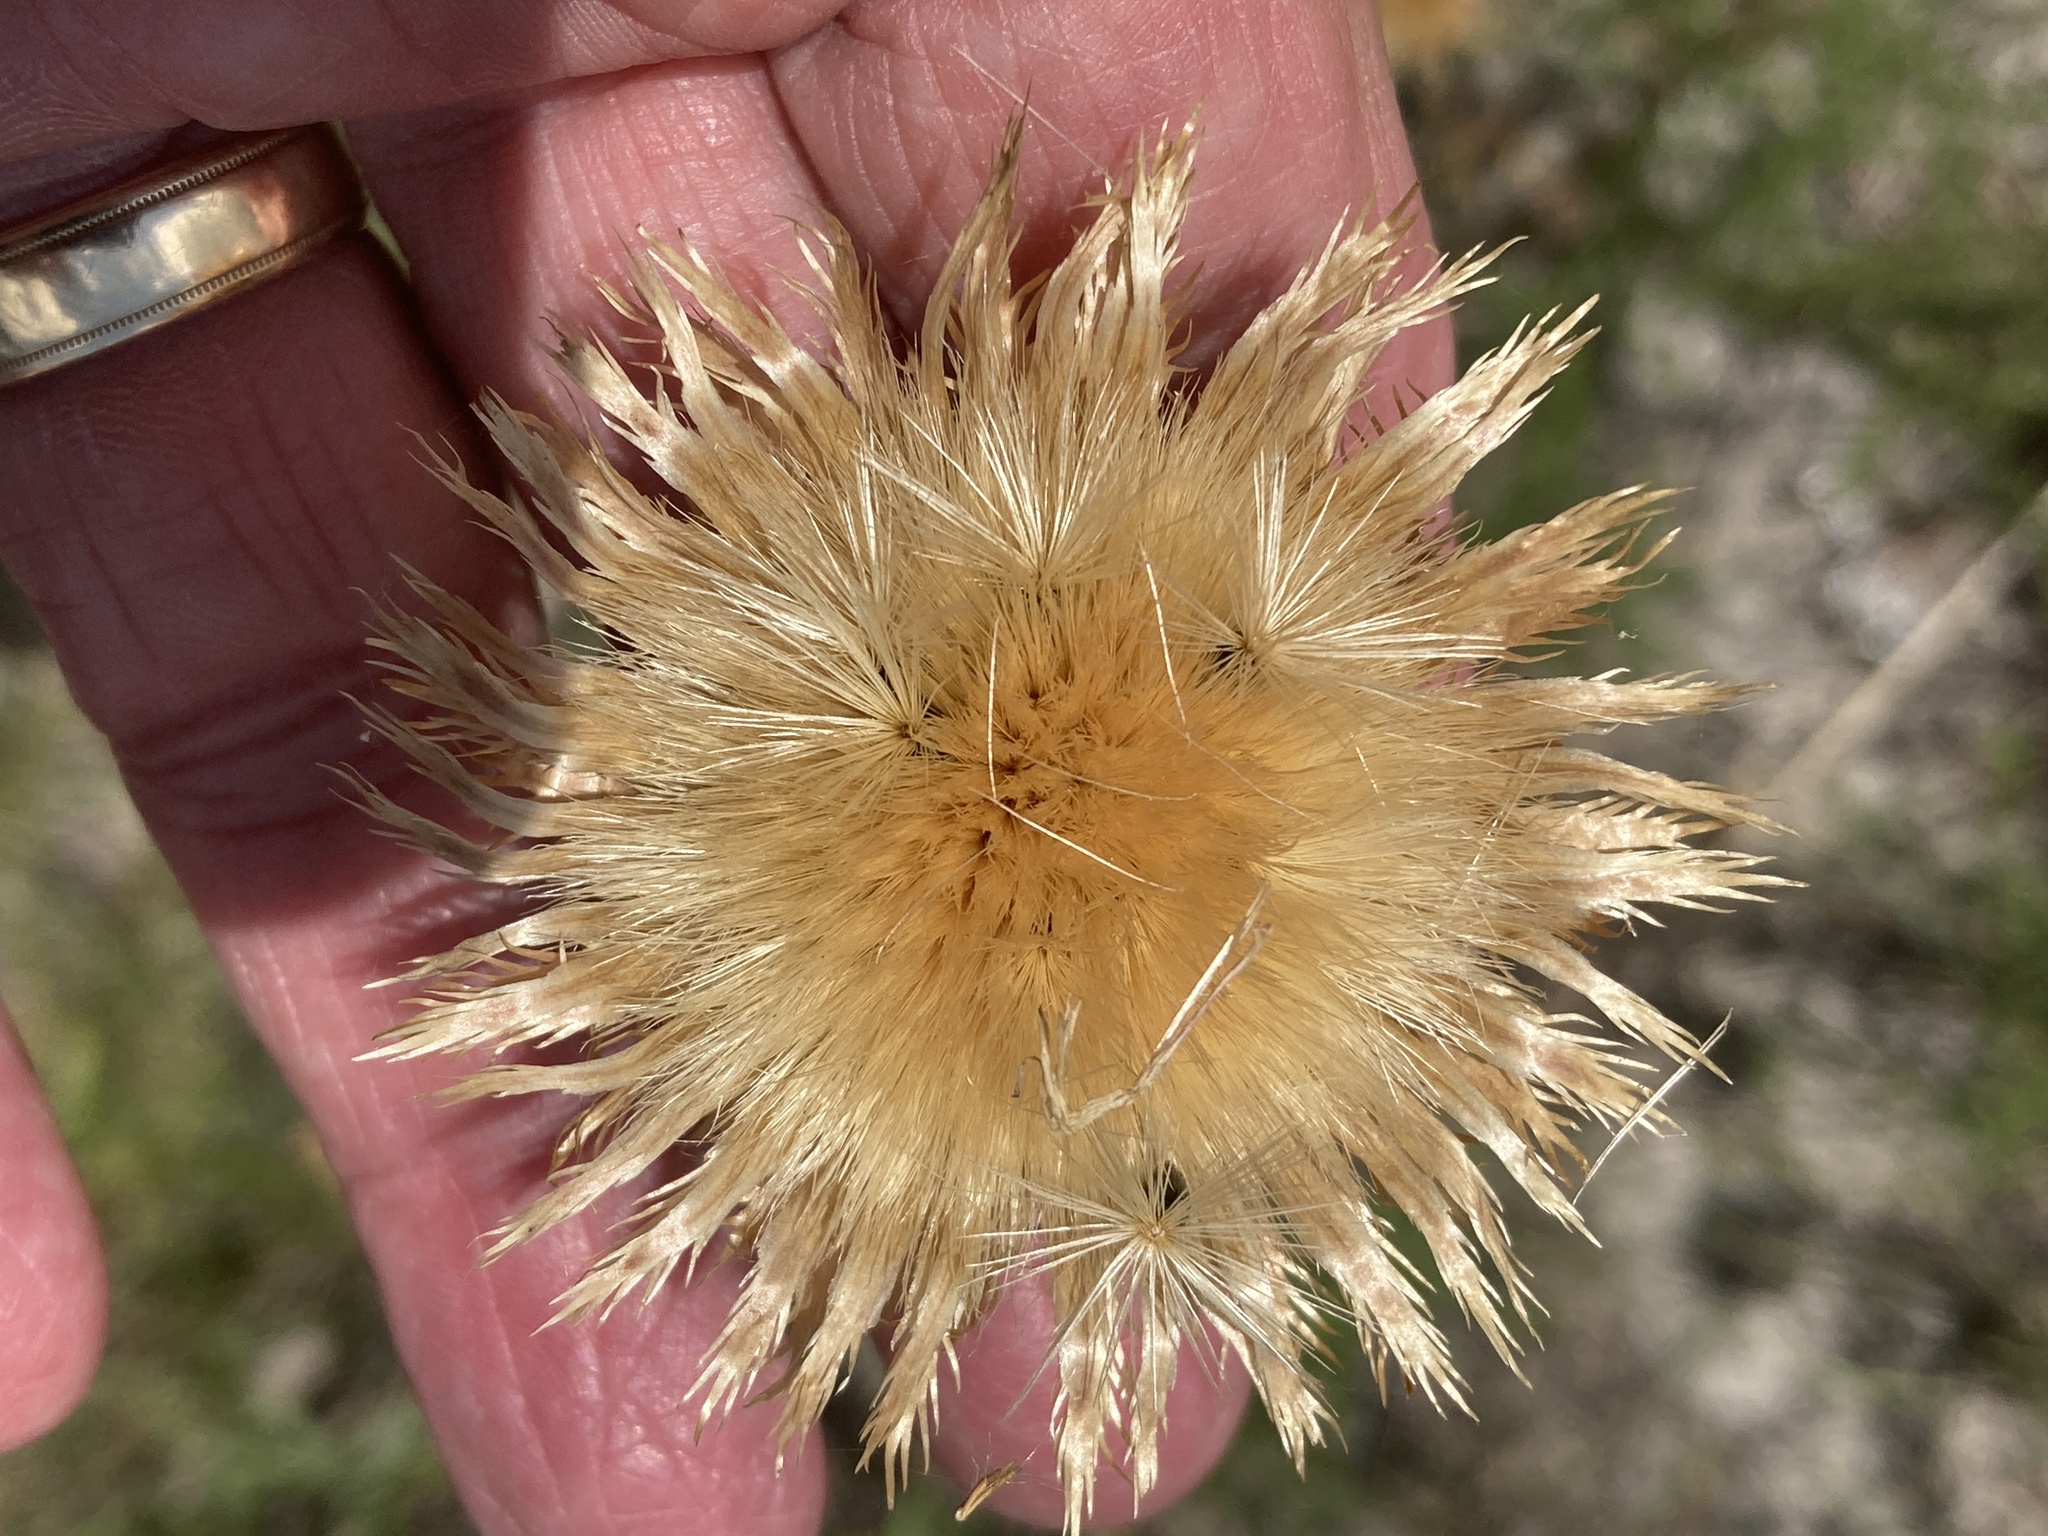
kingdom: Plantae
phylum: Tracheophyta
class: Magnoliopsida
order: Asterales
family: Asteraceae
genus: Plectocephalus
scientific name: Plectocephalus americanus
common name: American basket-flower
